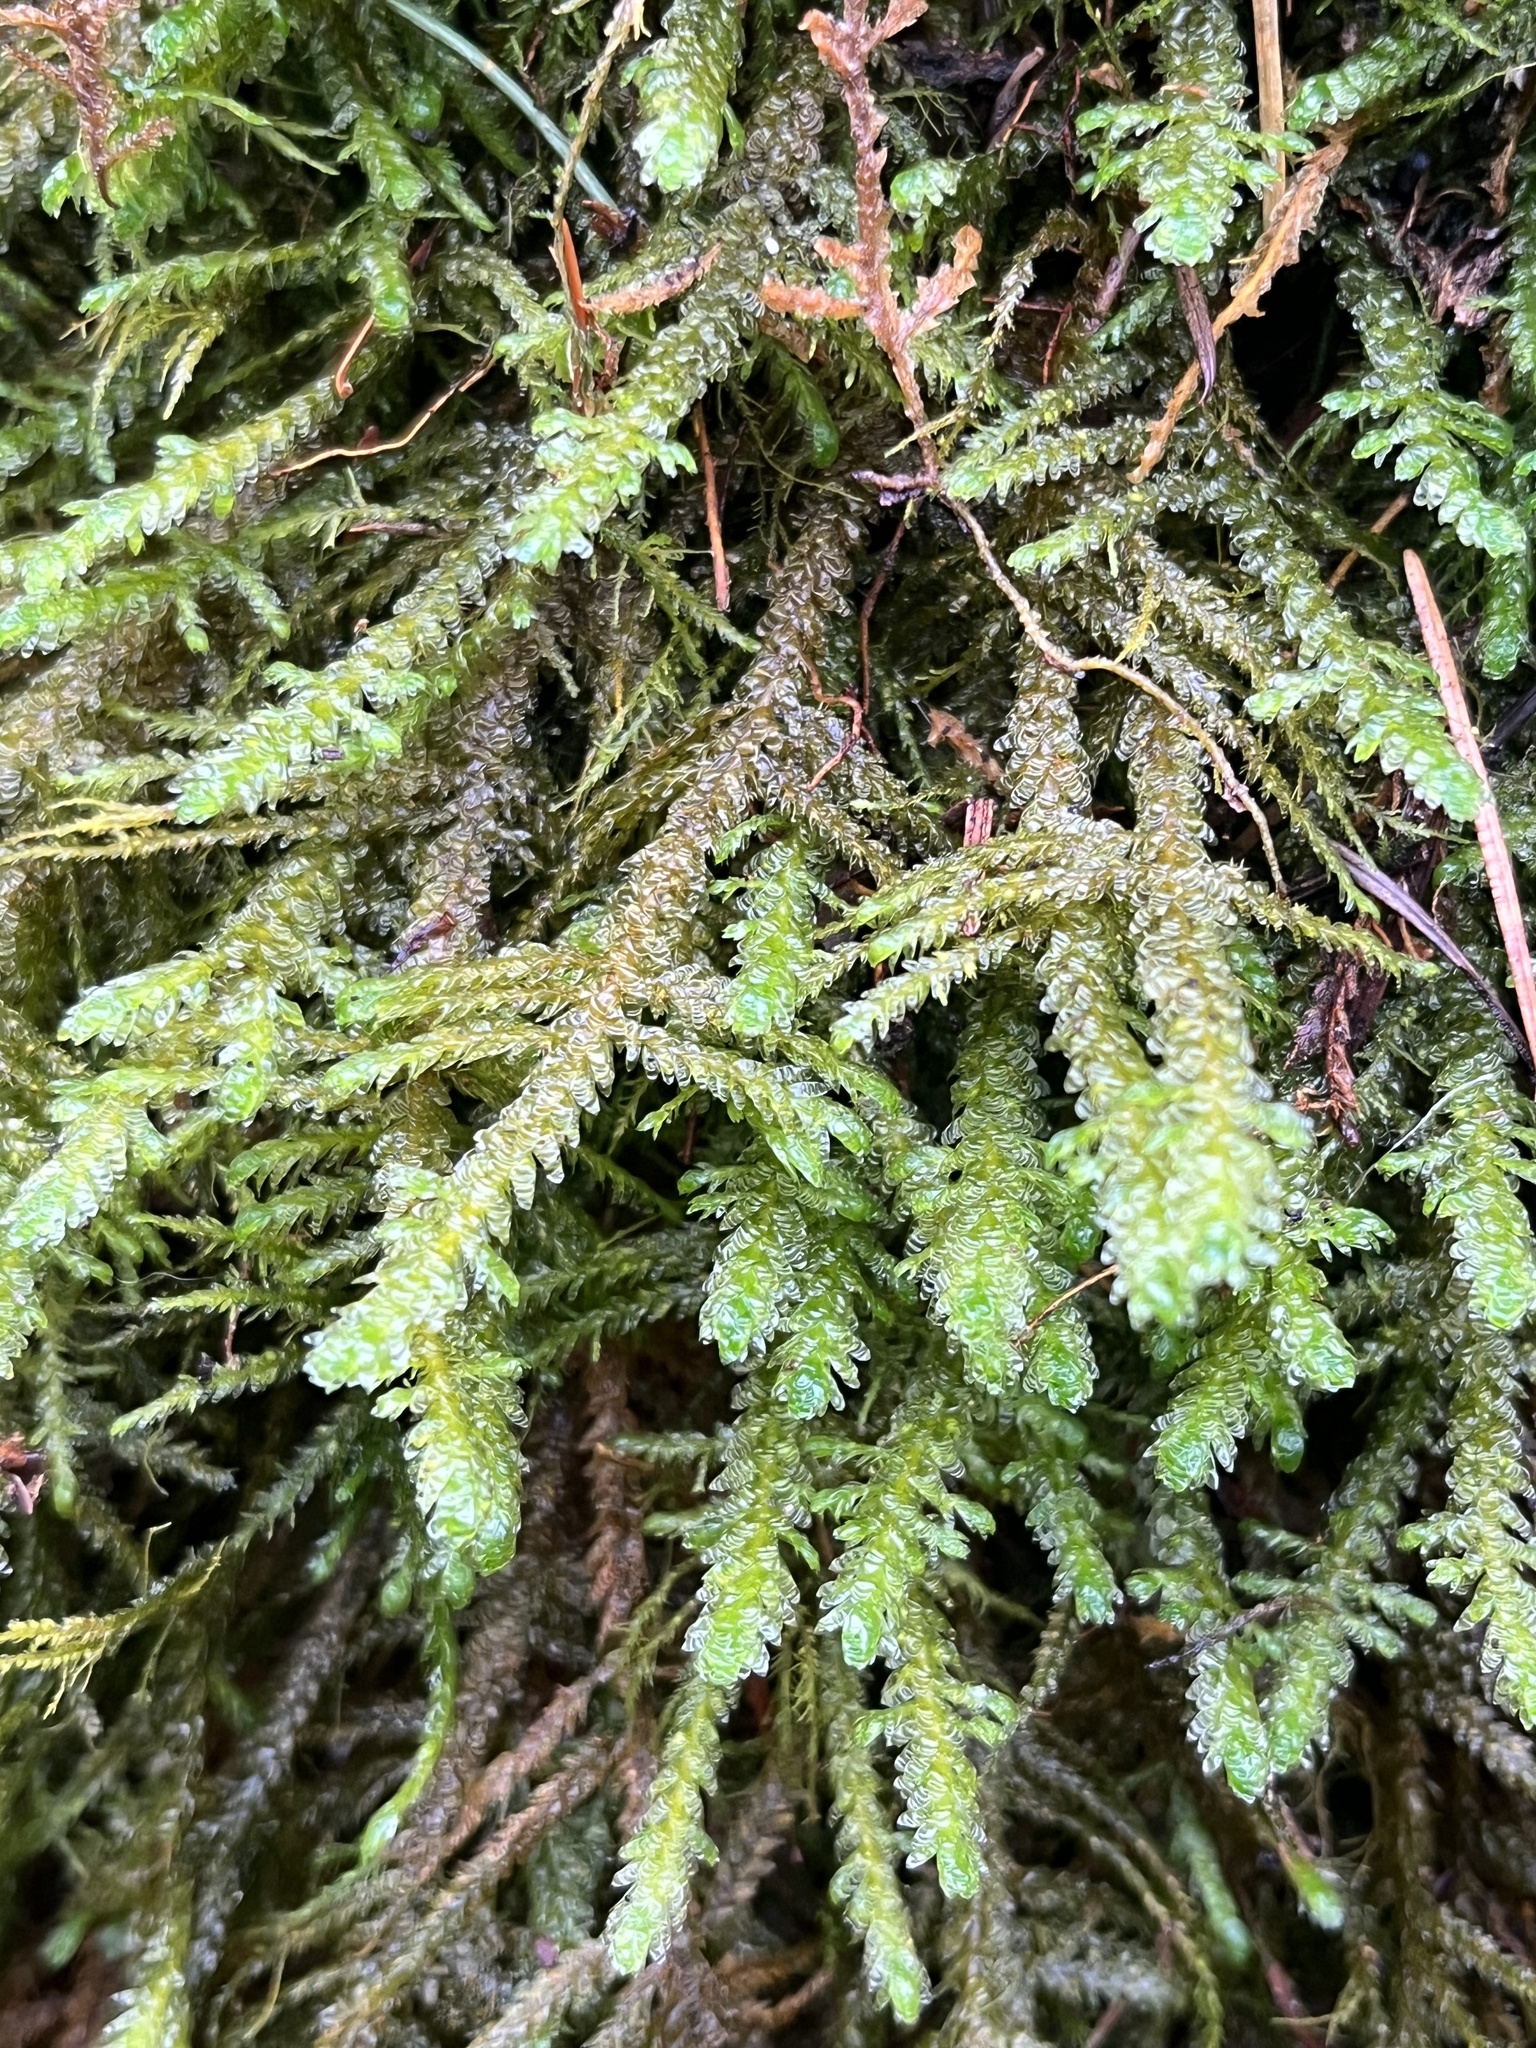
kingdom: Plantae
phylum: Bryophyta
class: Bryopsida
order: Hypnales
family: Neckeraceae
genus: Metaneckera
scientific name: Metaneckera menziesii
